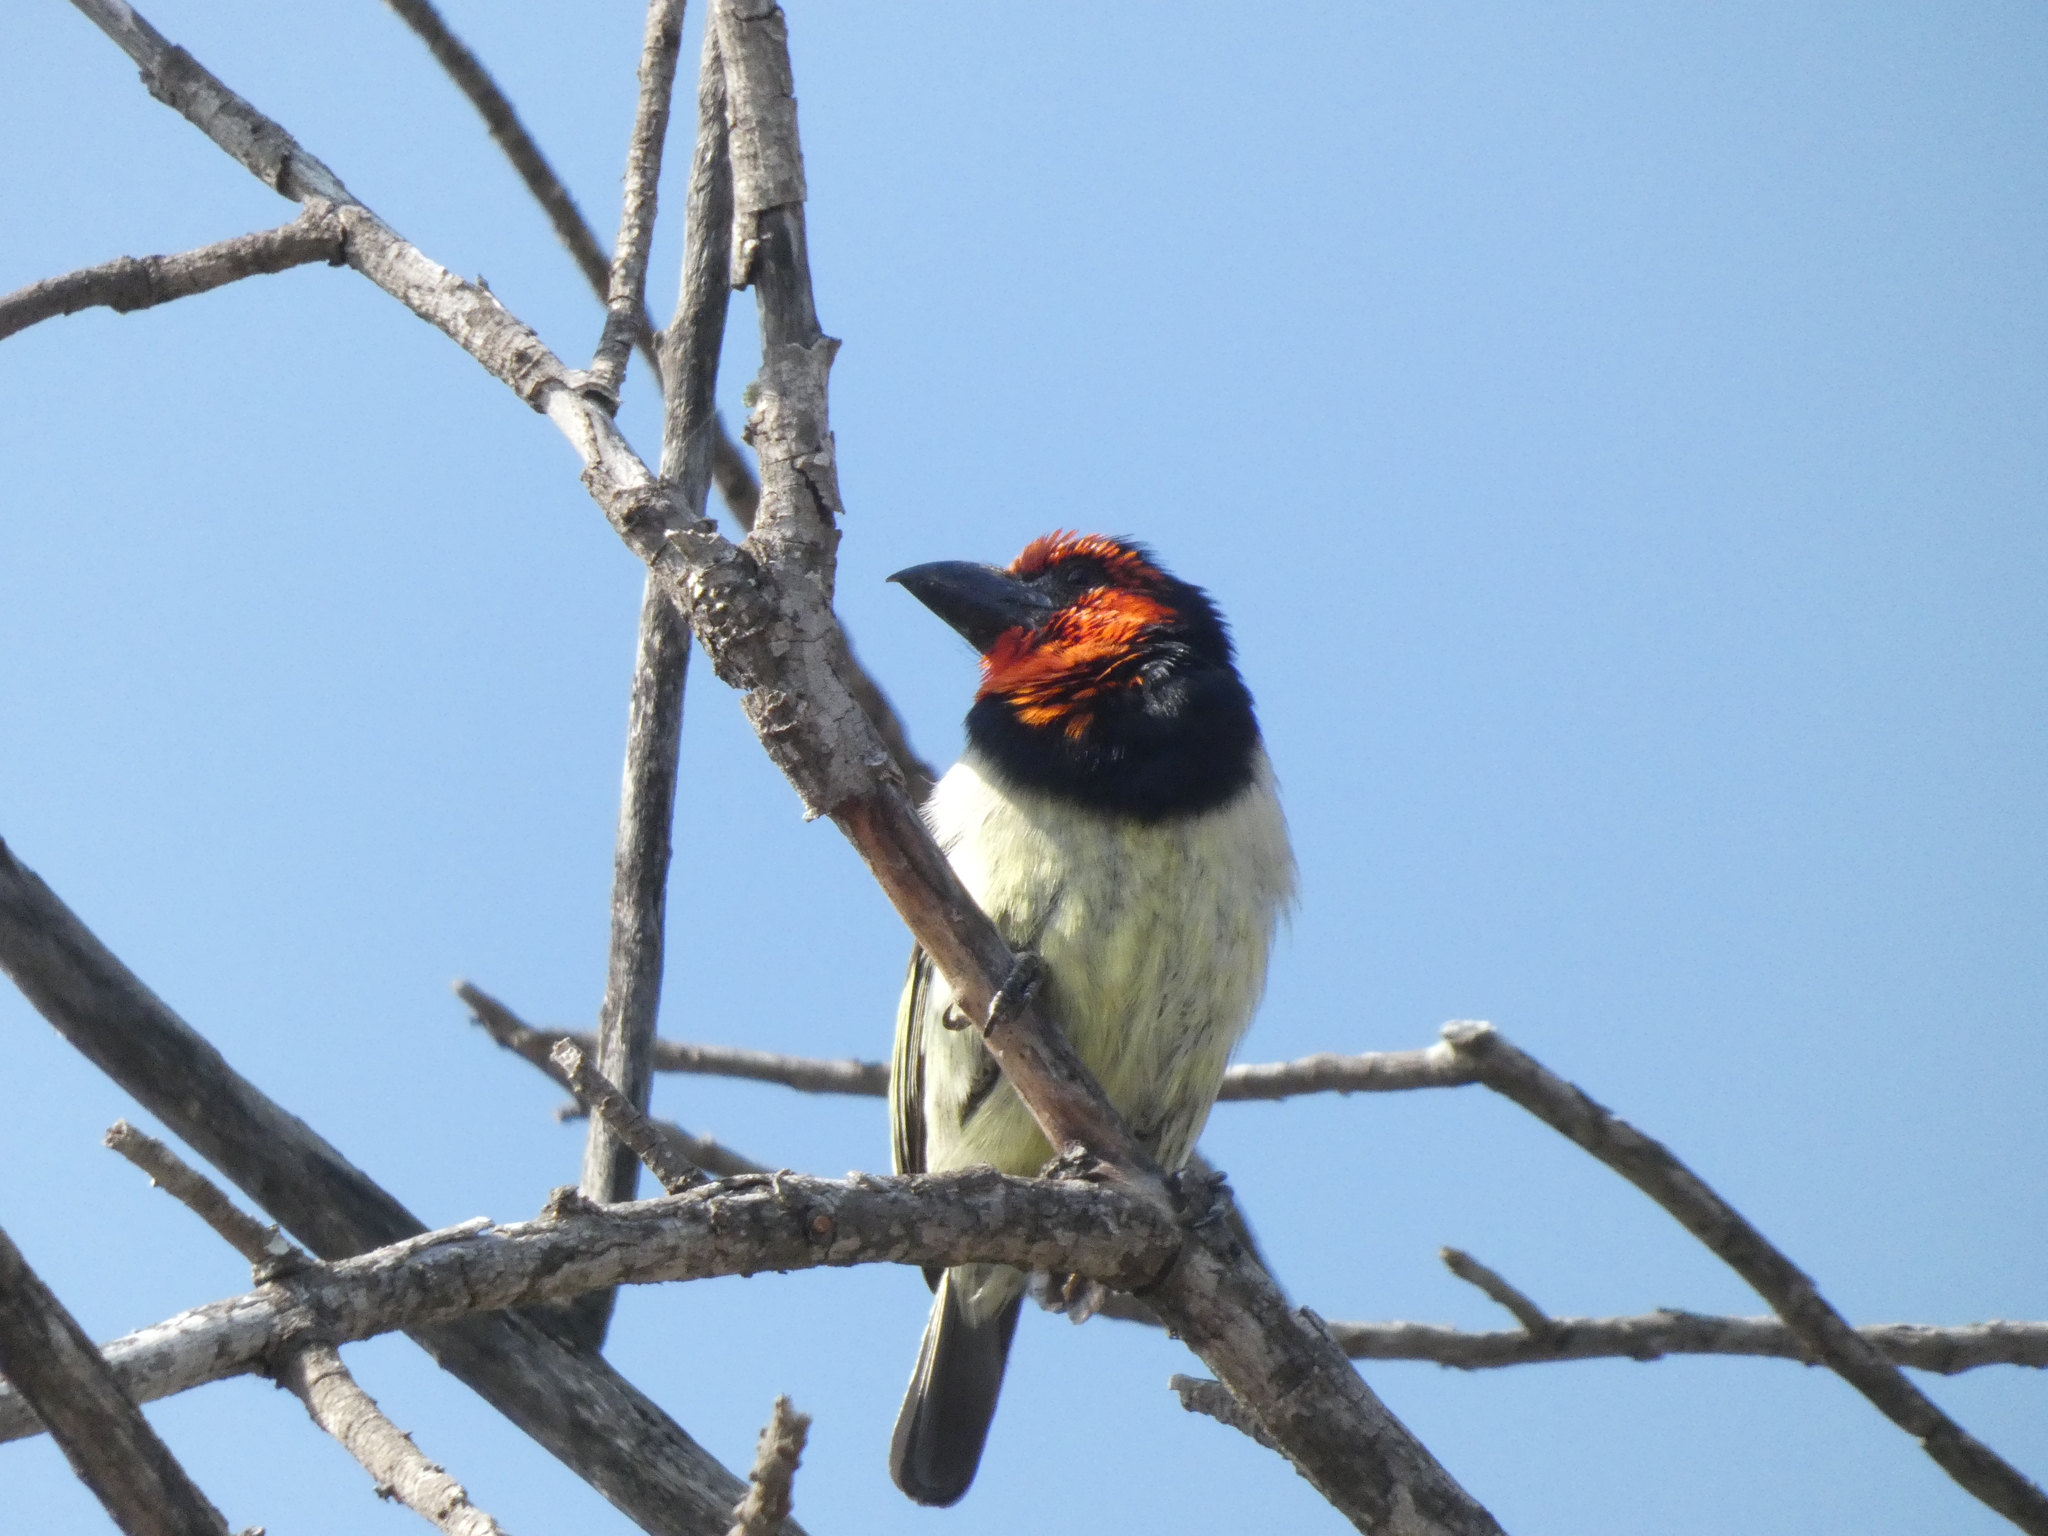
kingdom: Animalia
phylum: Chordata
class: Aves
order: Piciformes
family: Lybiidae
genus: Lybius
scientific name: Lybius torquatus
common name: Black-collared barbet
